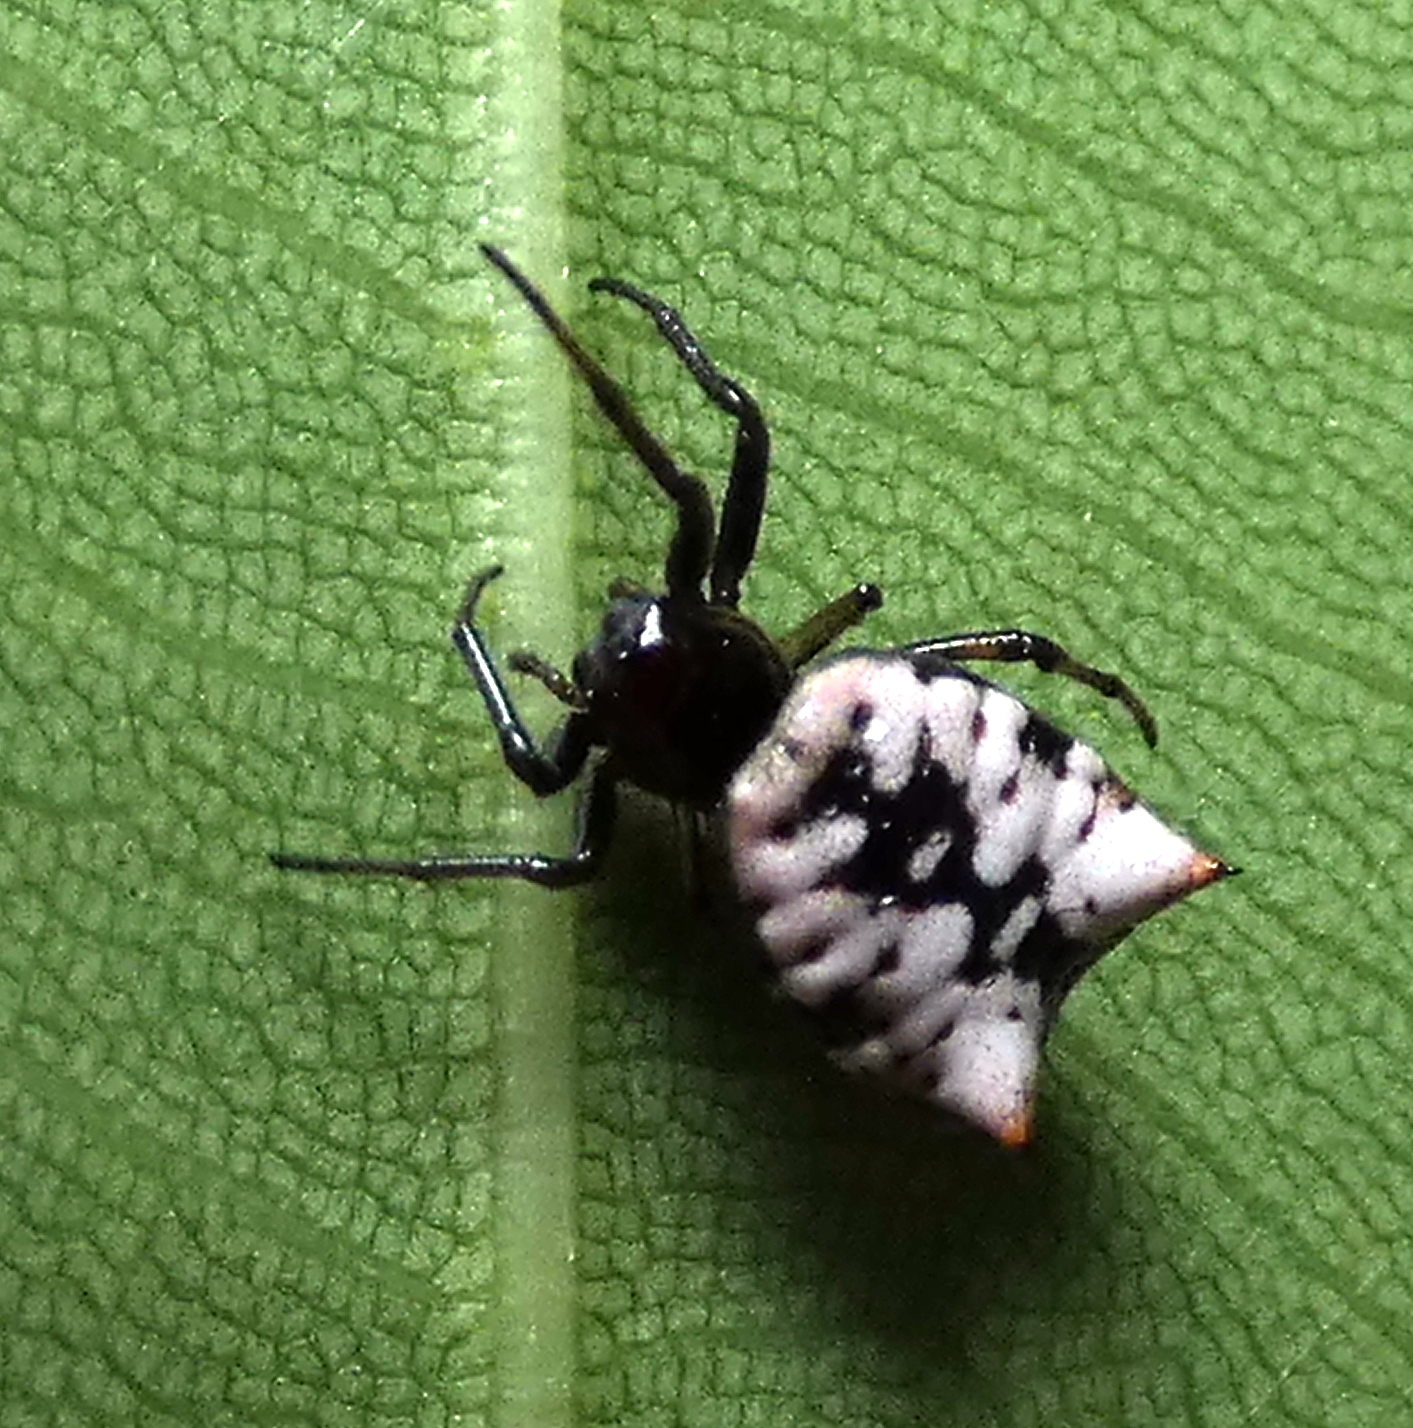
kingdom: Animalia
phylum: Arthropoda
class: Arachnida
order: Araneae
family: Araneidae
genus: Micrathena
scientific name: Micrathena patruelis
